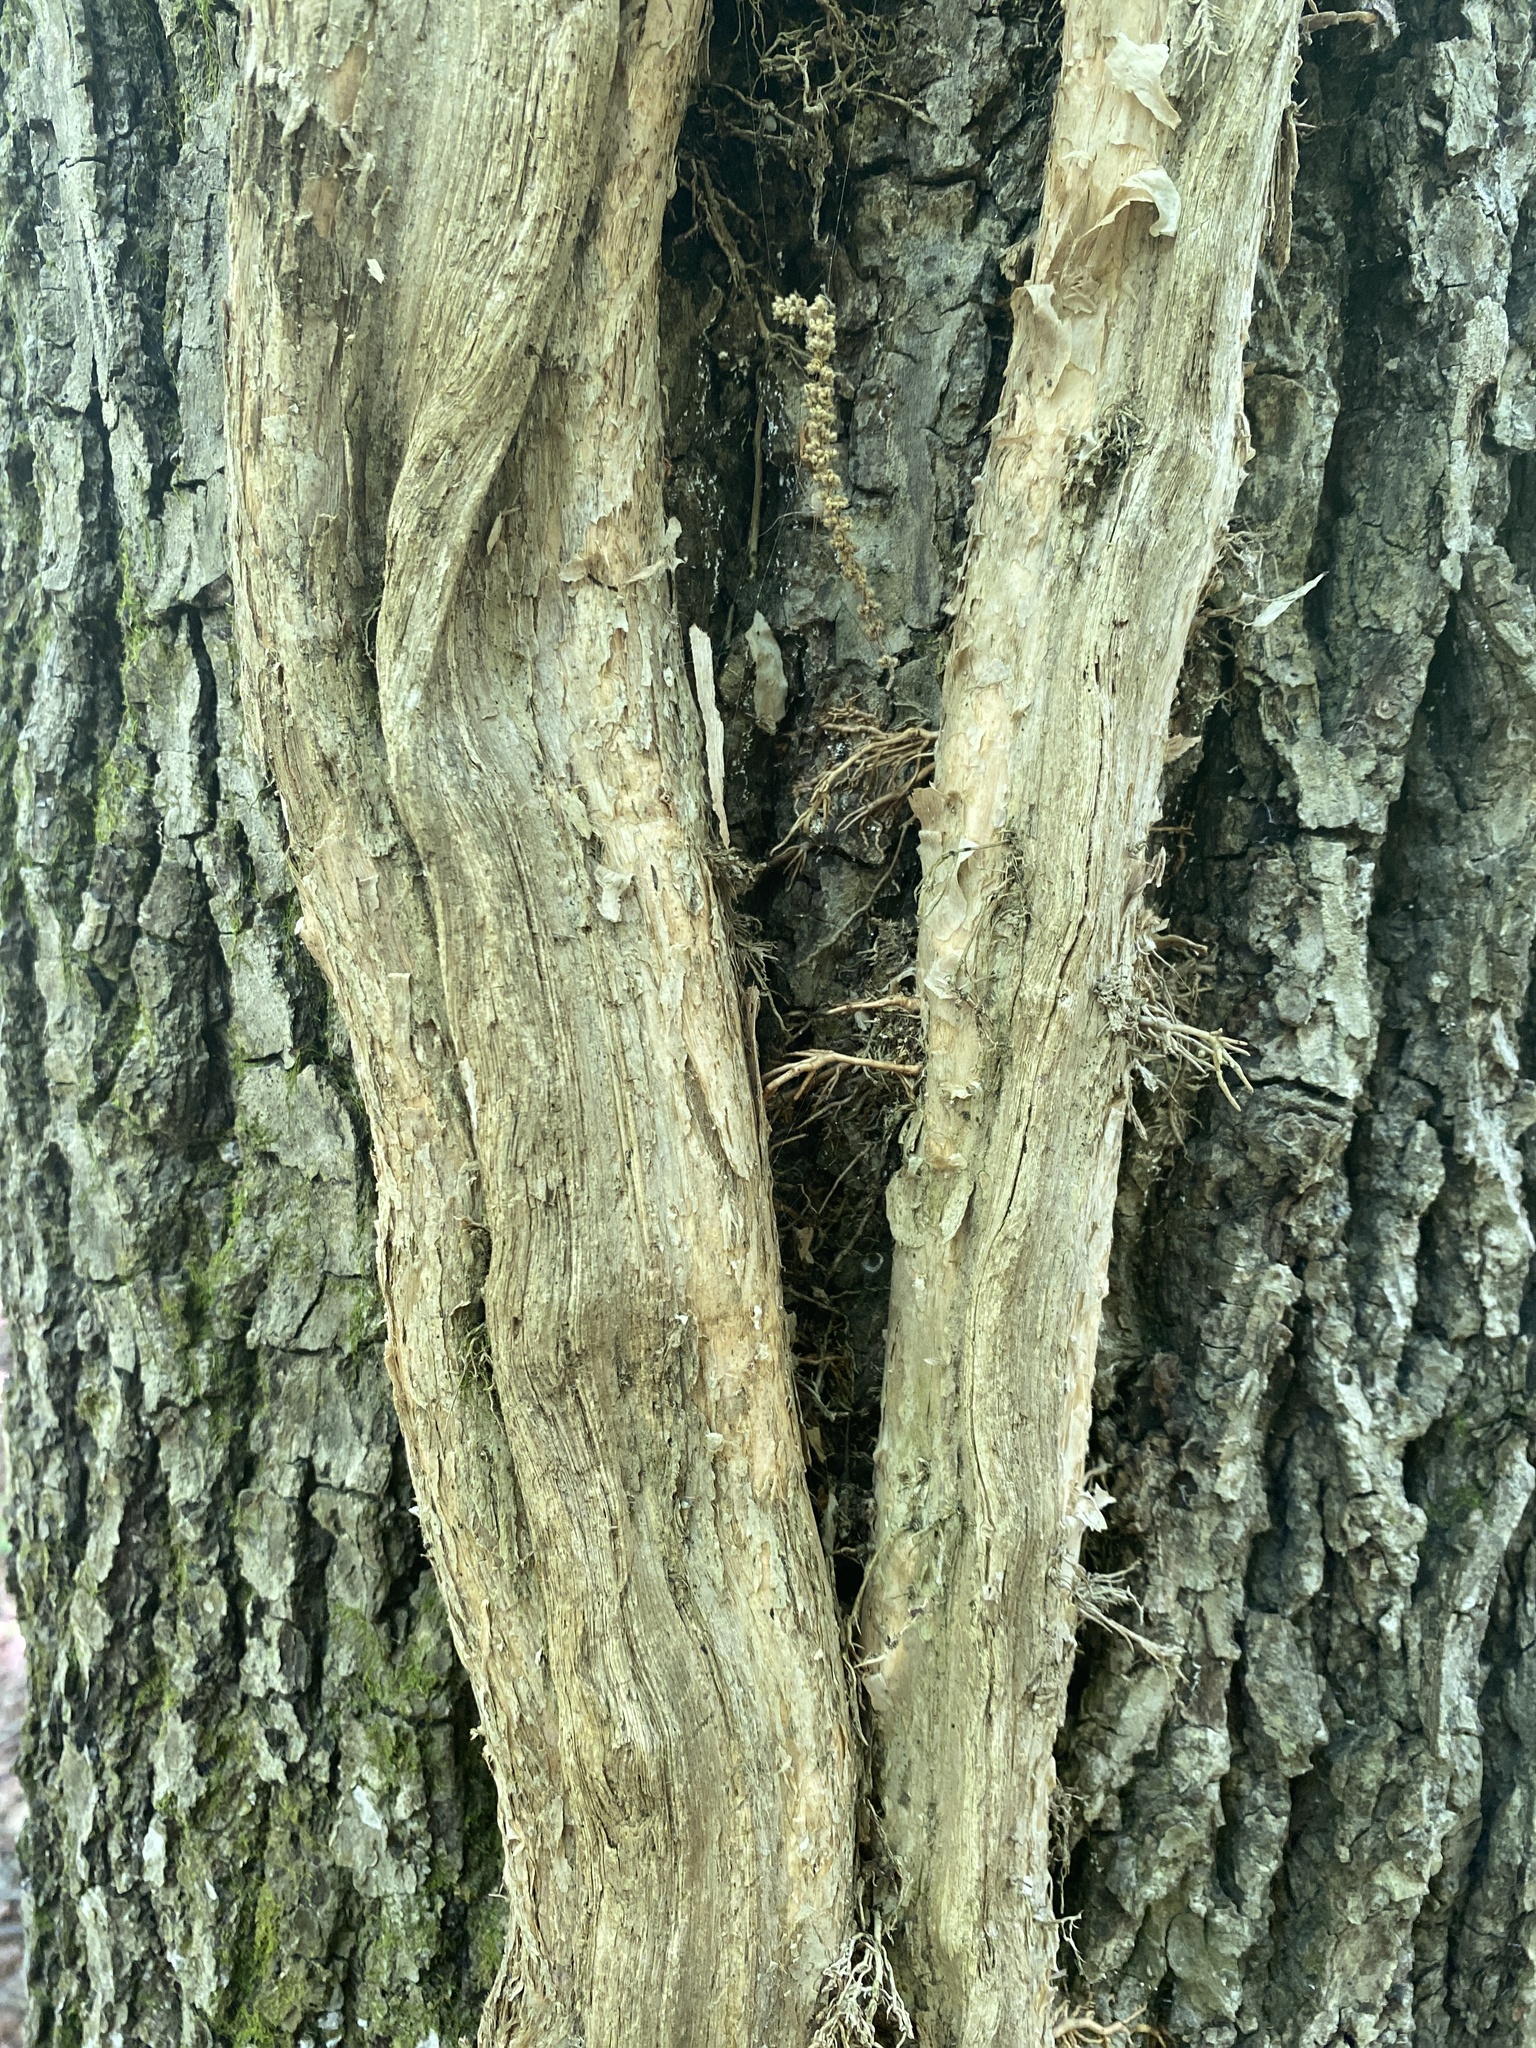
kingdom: Plantae
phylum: Tracheophyta
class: Magnoliopsida
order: Lamiales
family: Bignoniaceae
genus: Campsis
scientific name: Campsis radicans
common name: Trumpet-creeper
